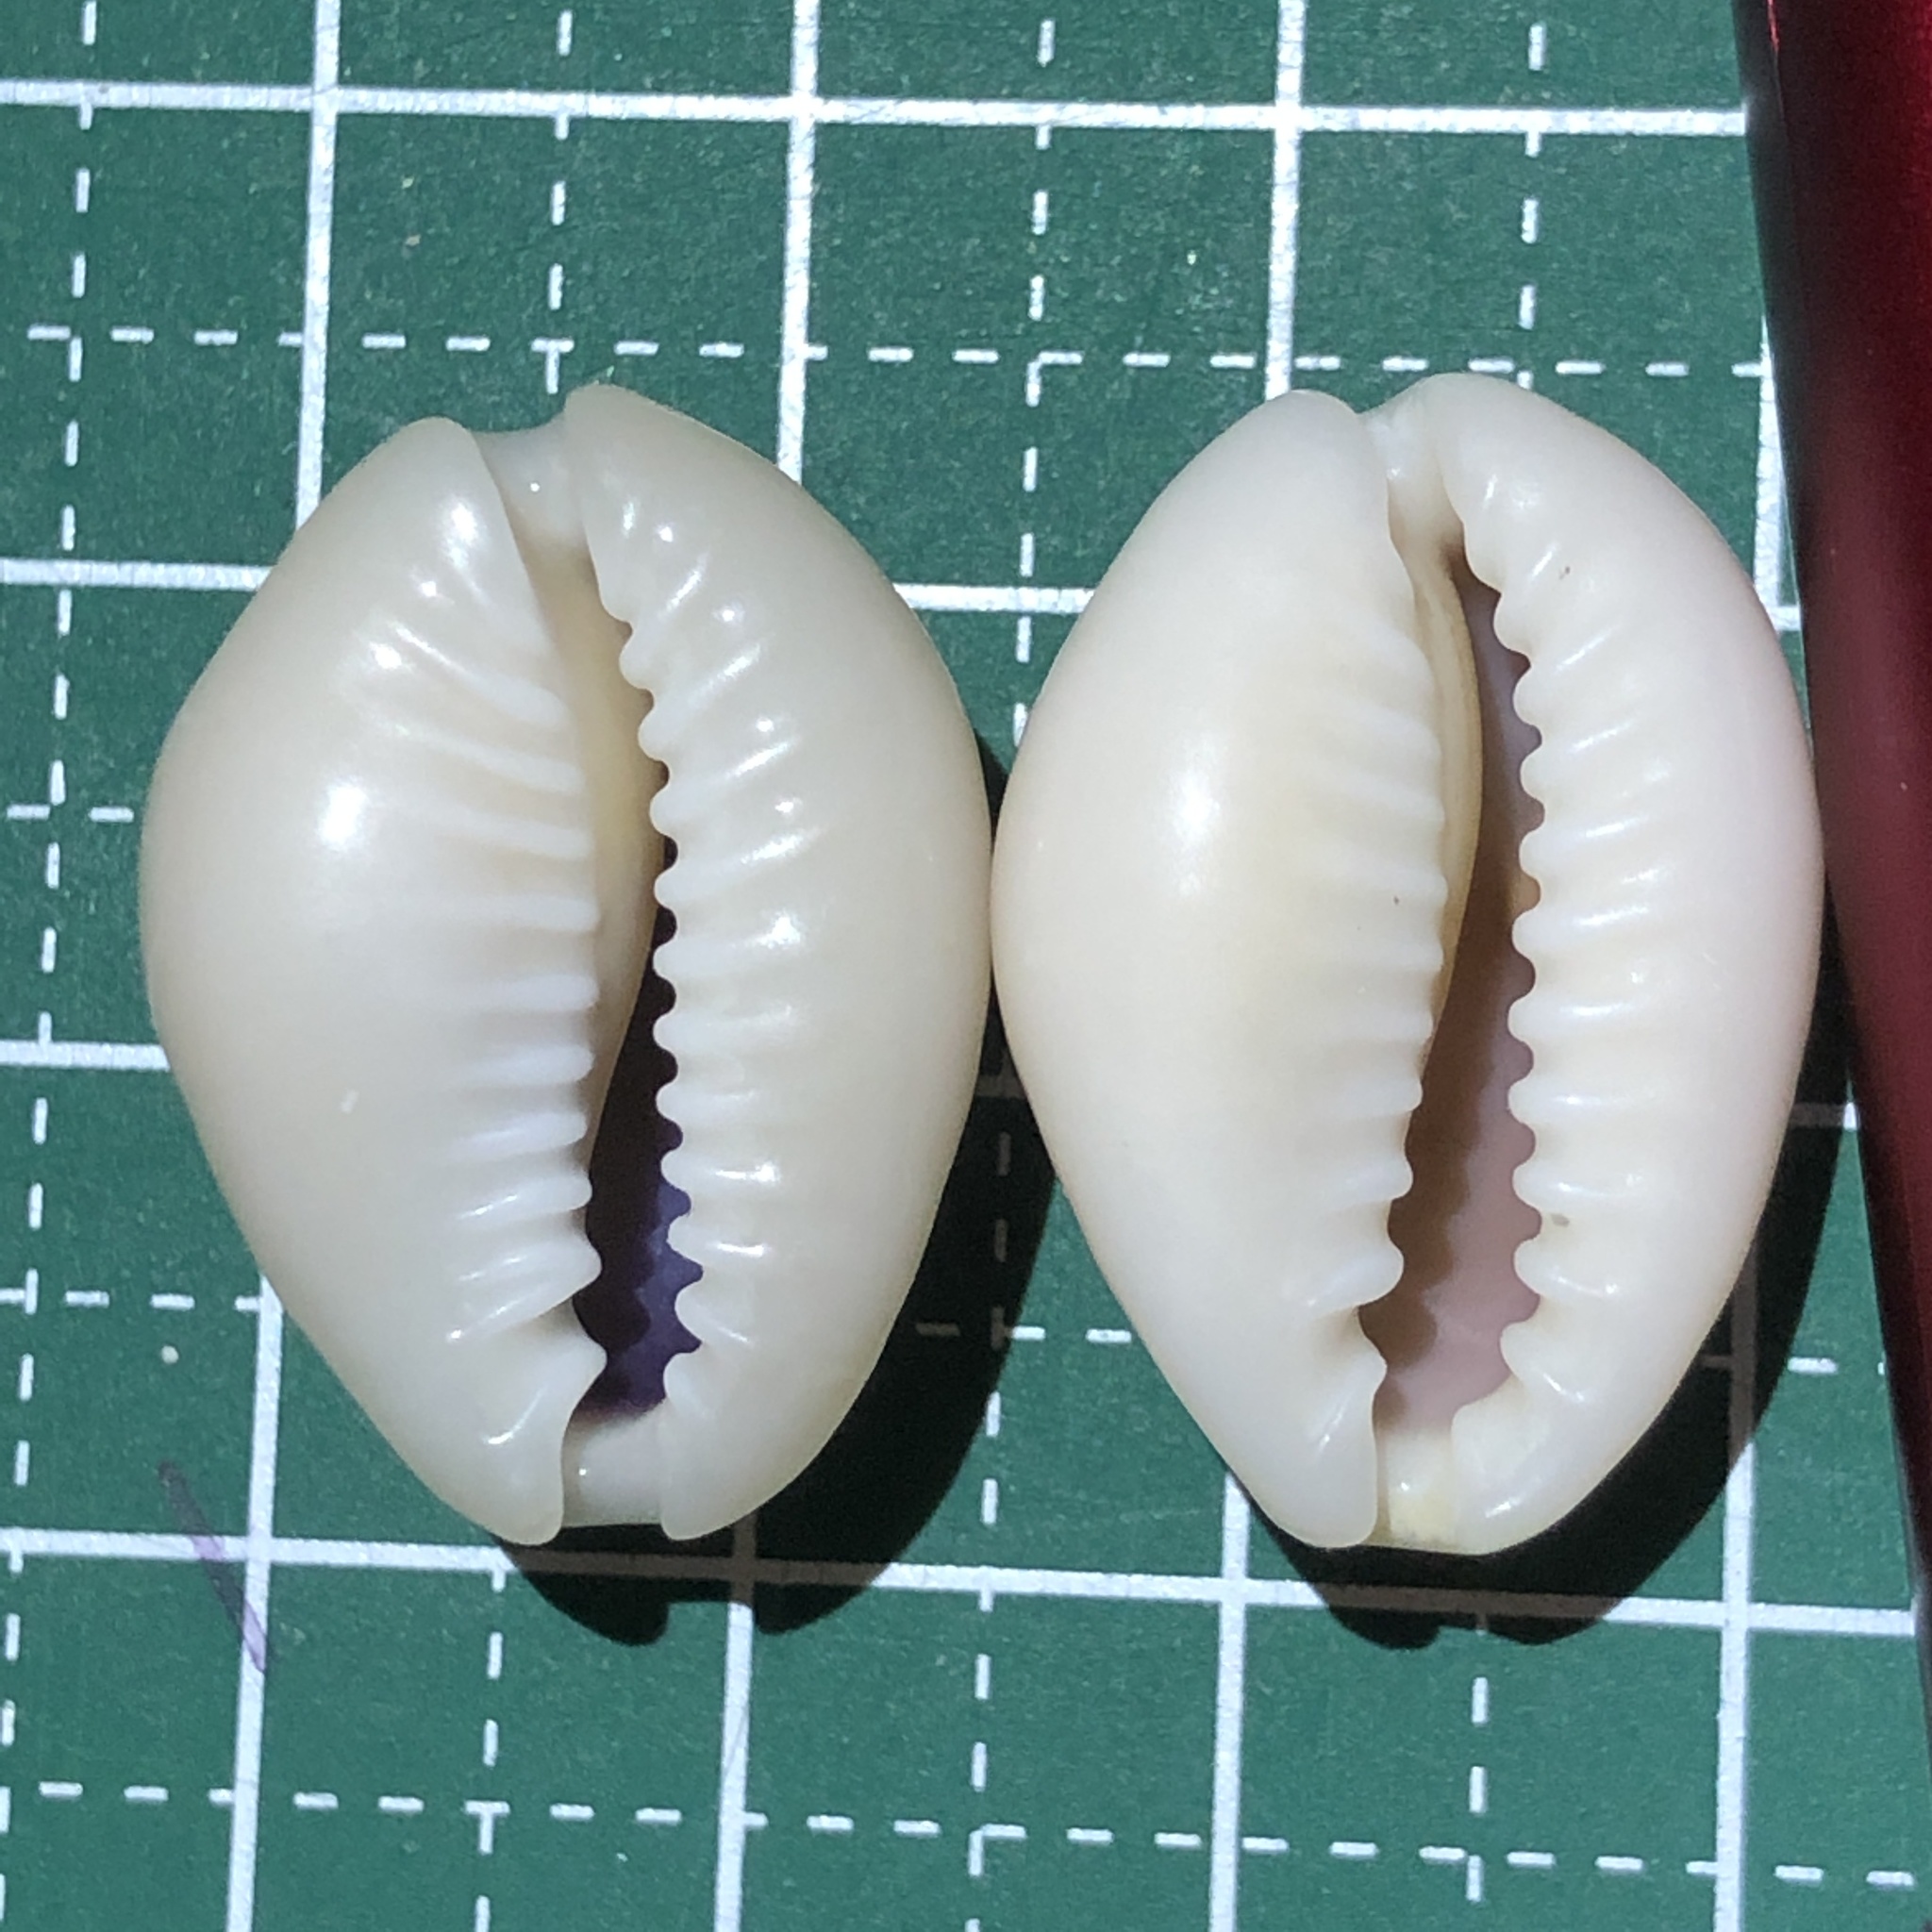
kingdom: Animalia
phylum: Mollusca
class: Gastropoda
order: Littorinimorpha
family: Cypraeidae
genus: Monetaria
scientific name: Monetaria annulus
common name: Ring cowrie
